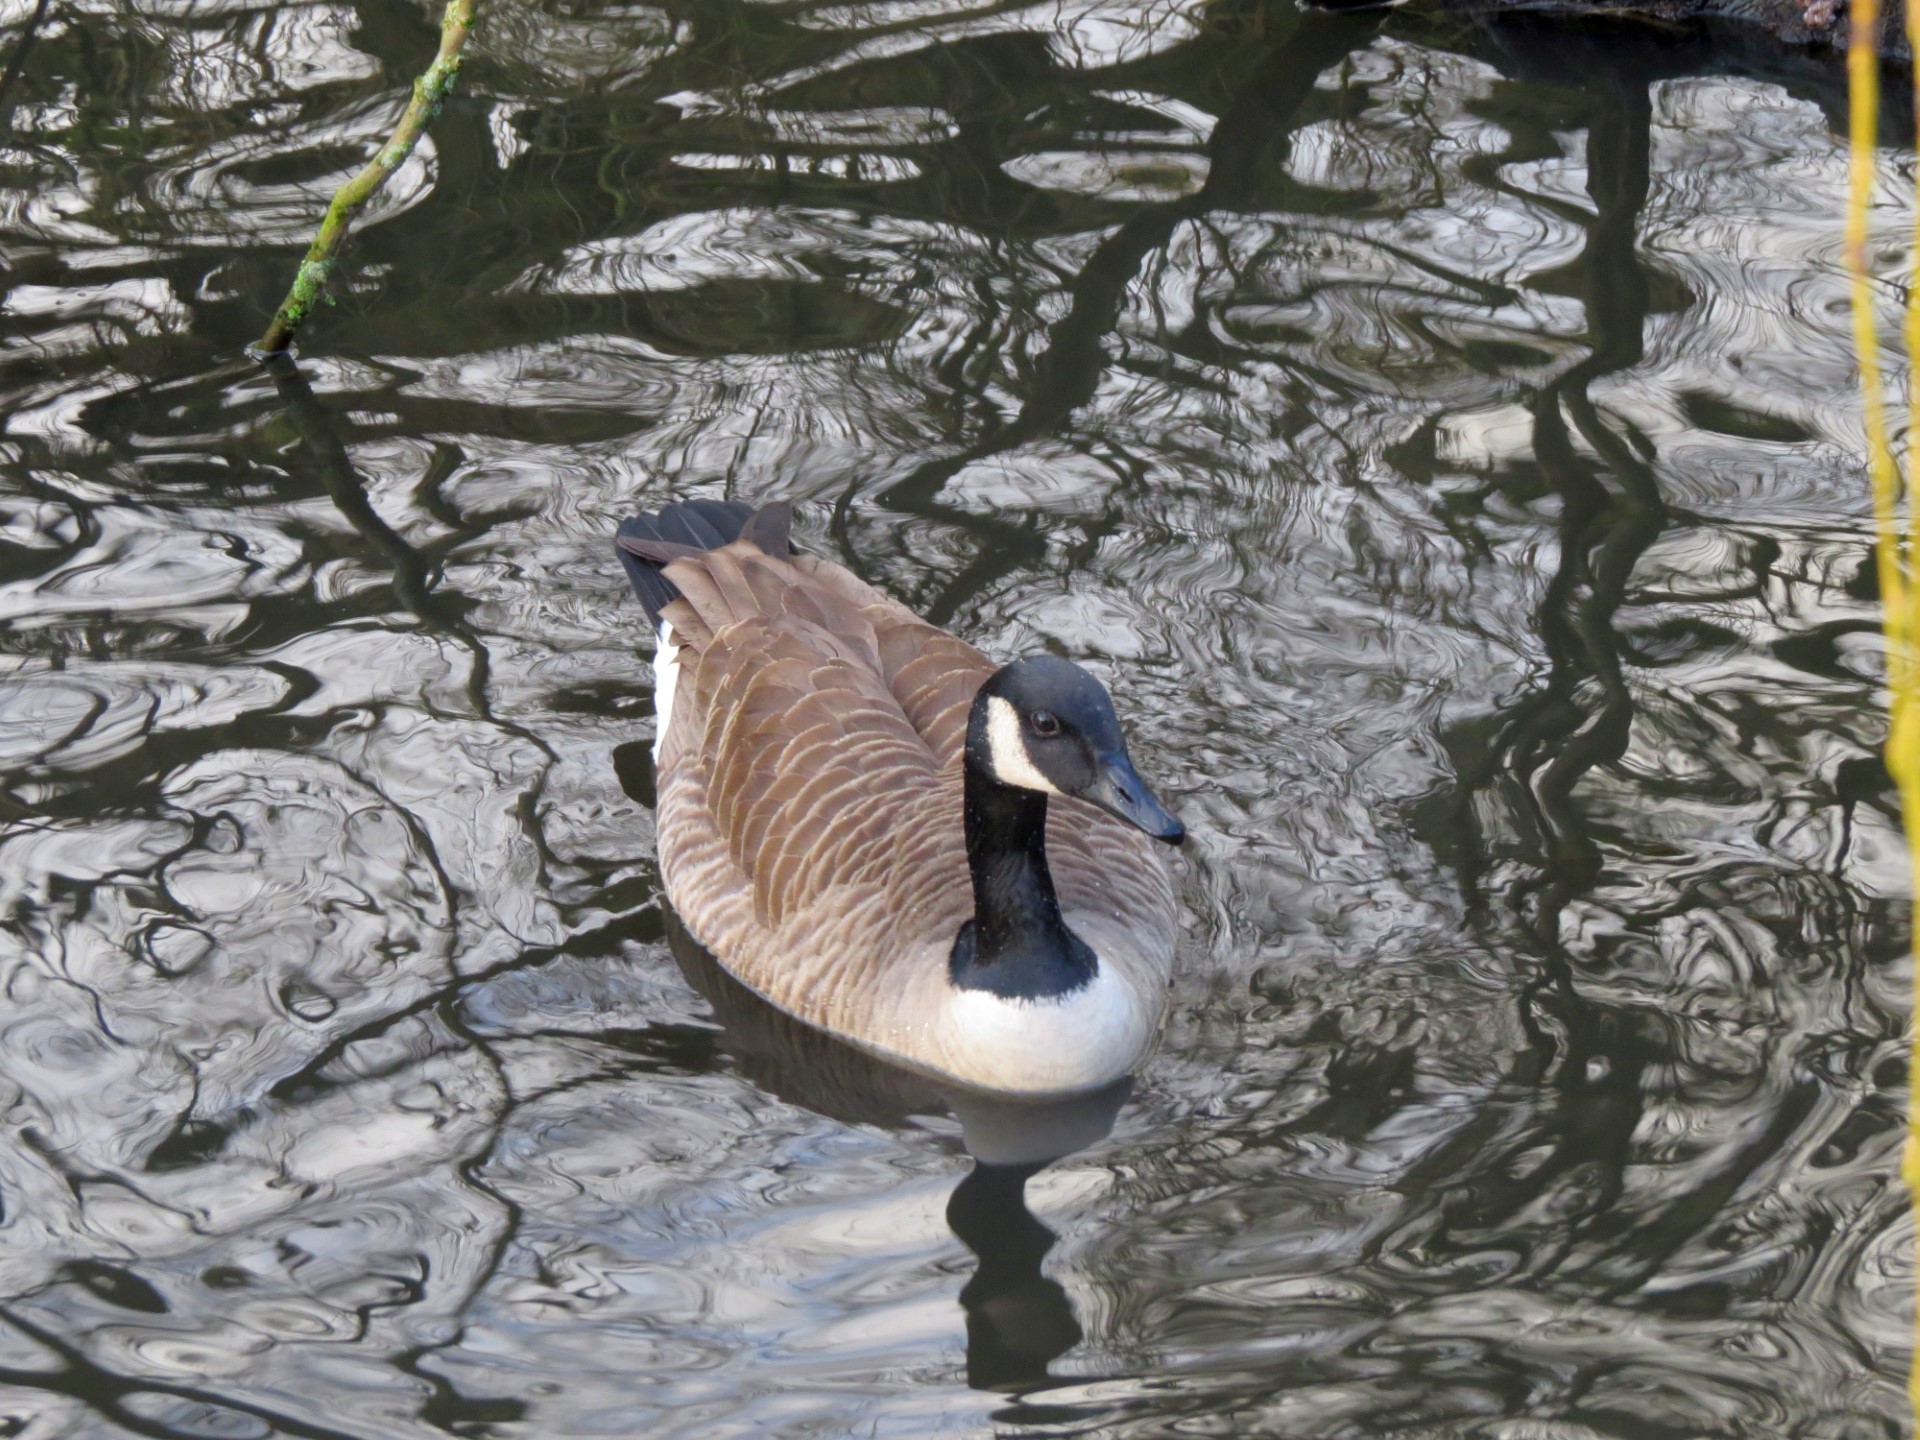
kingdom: Animalia
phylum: Chordata
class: Aves
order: Anseriformes
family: Anatidae
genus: Branta
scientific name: Branta canadensis
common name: Canada goose
